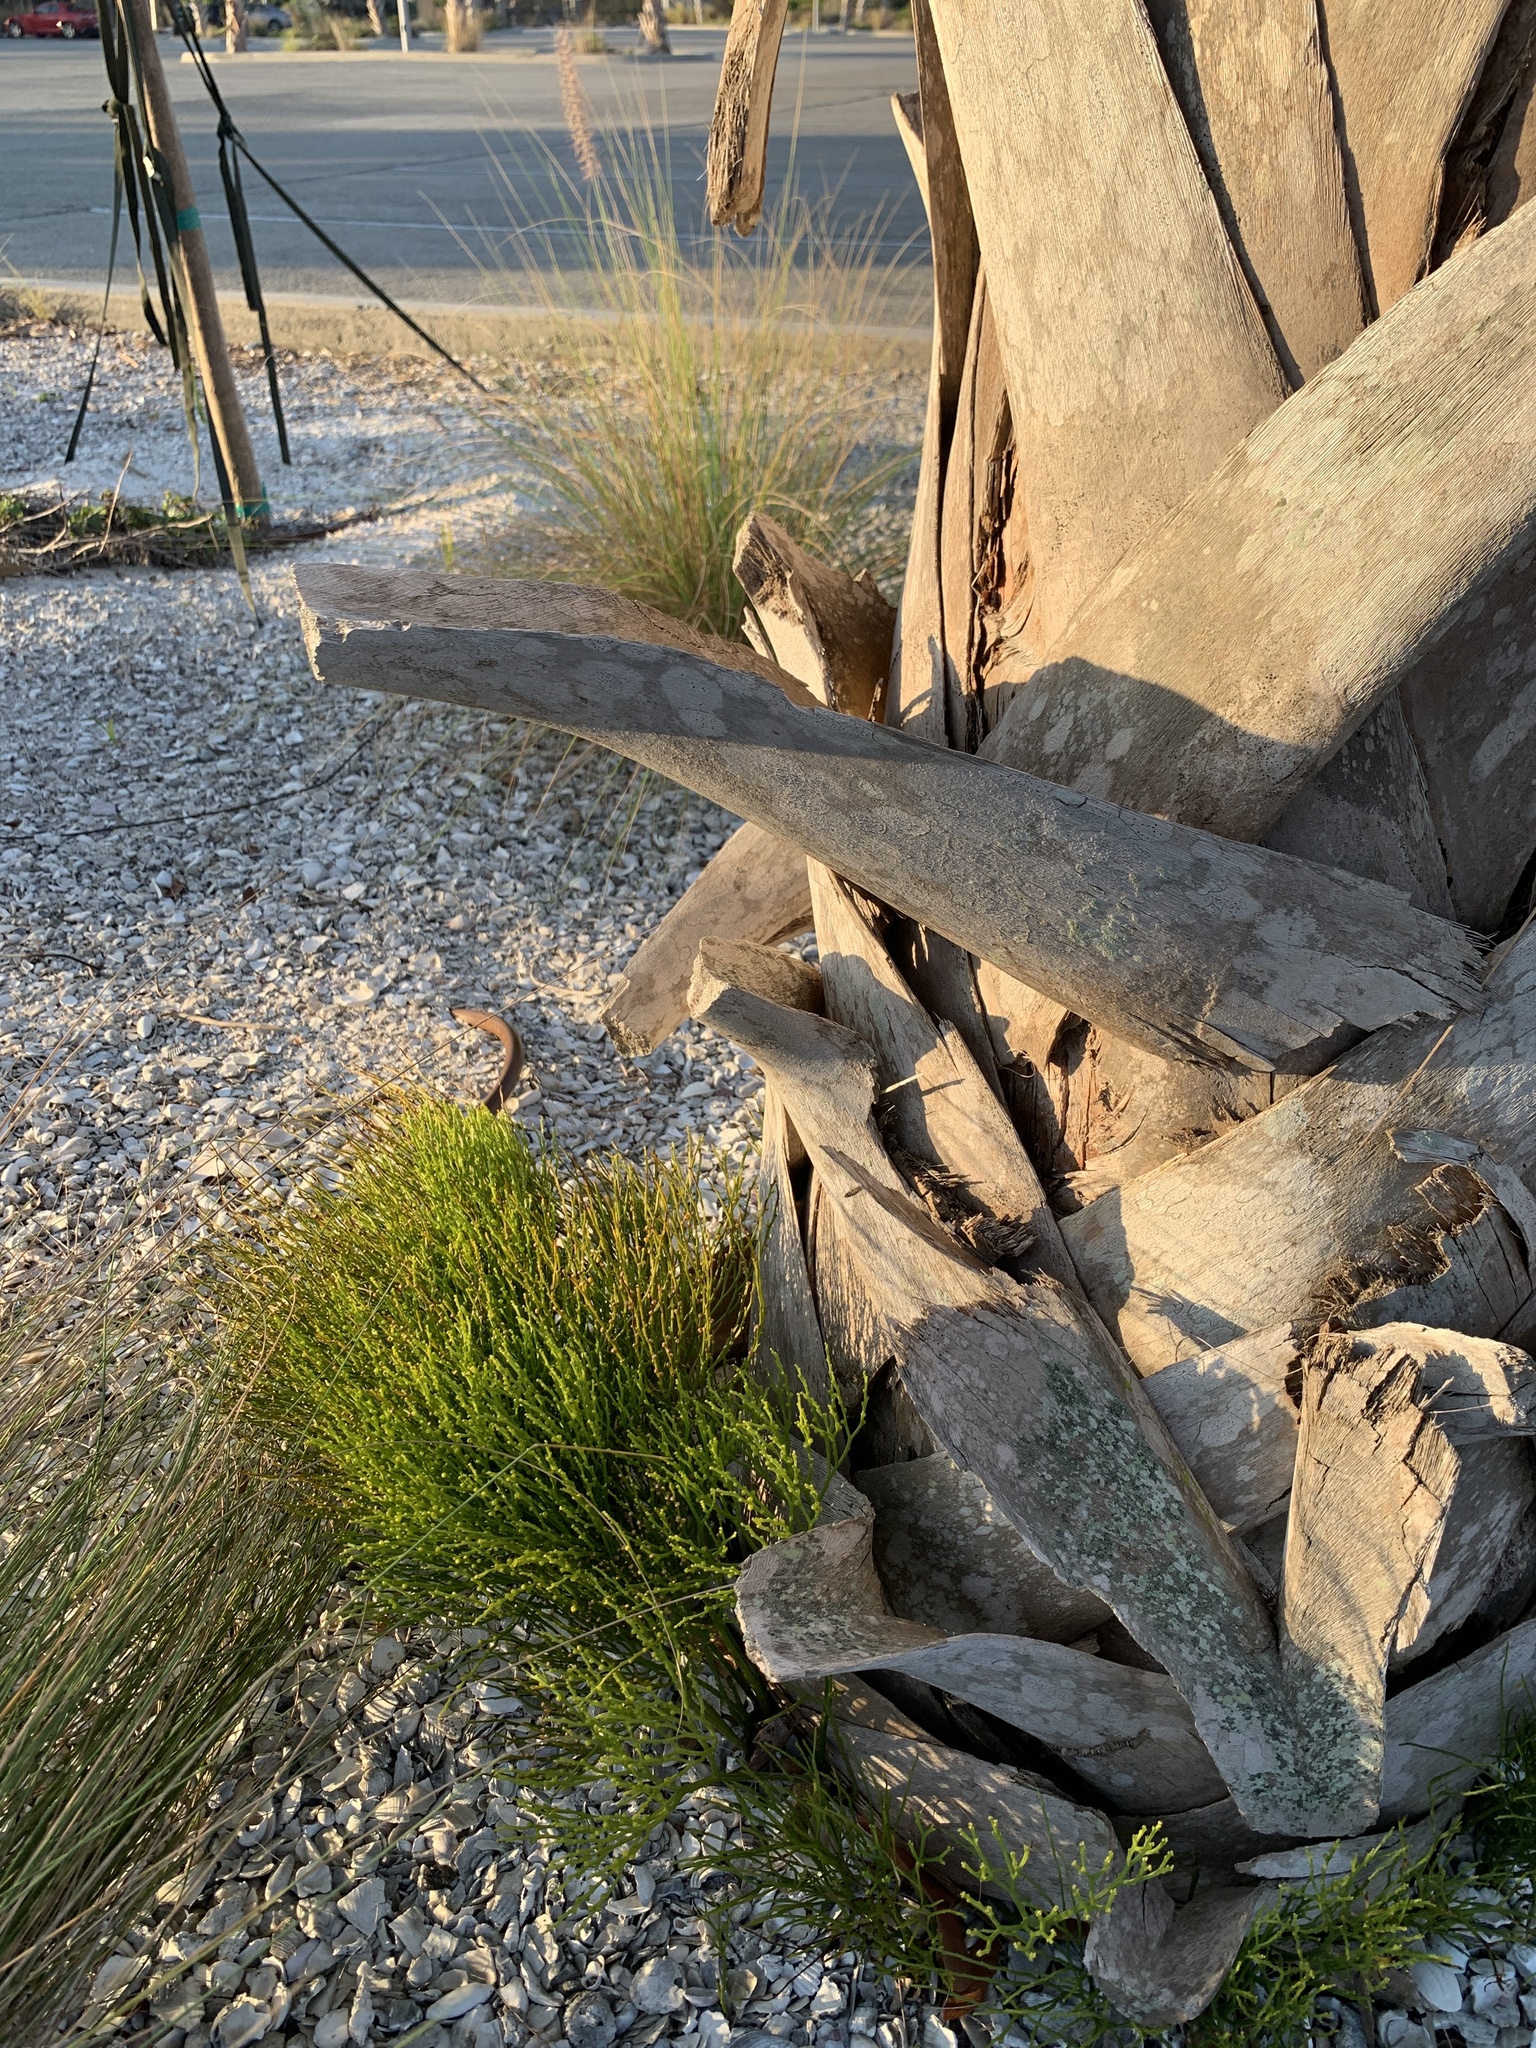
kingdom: Plantae
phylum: Tracheophyta
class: Polypodiopsida
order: Psilotales
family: Psilotaceae
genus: Psilotum
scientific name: Psilotum nudum
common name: Skeleton fork fern
